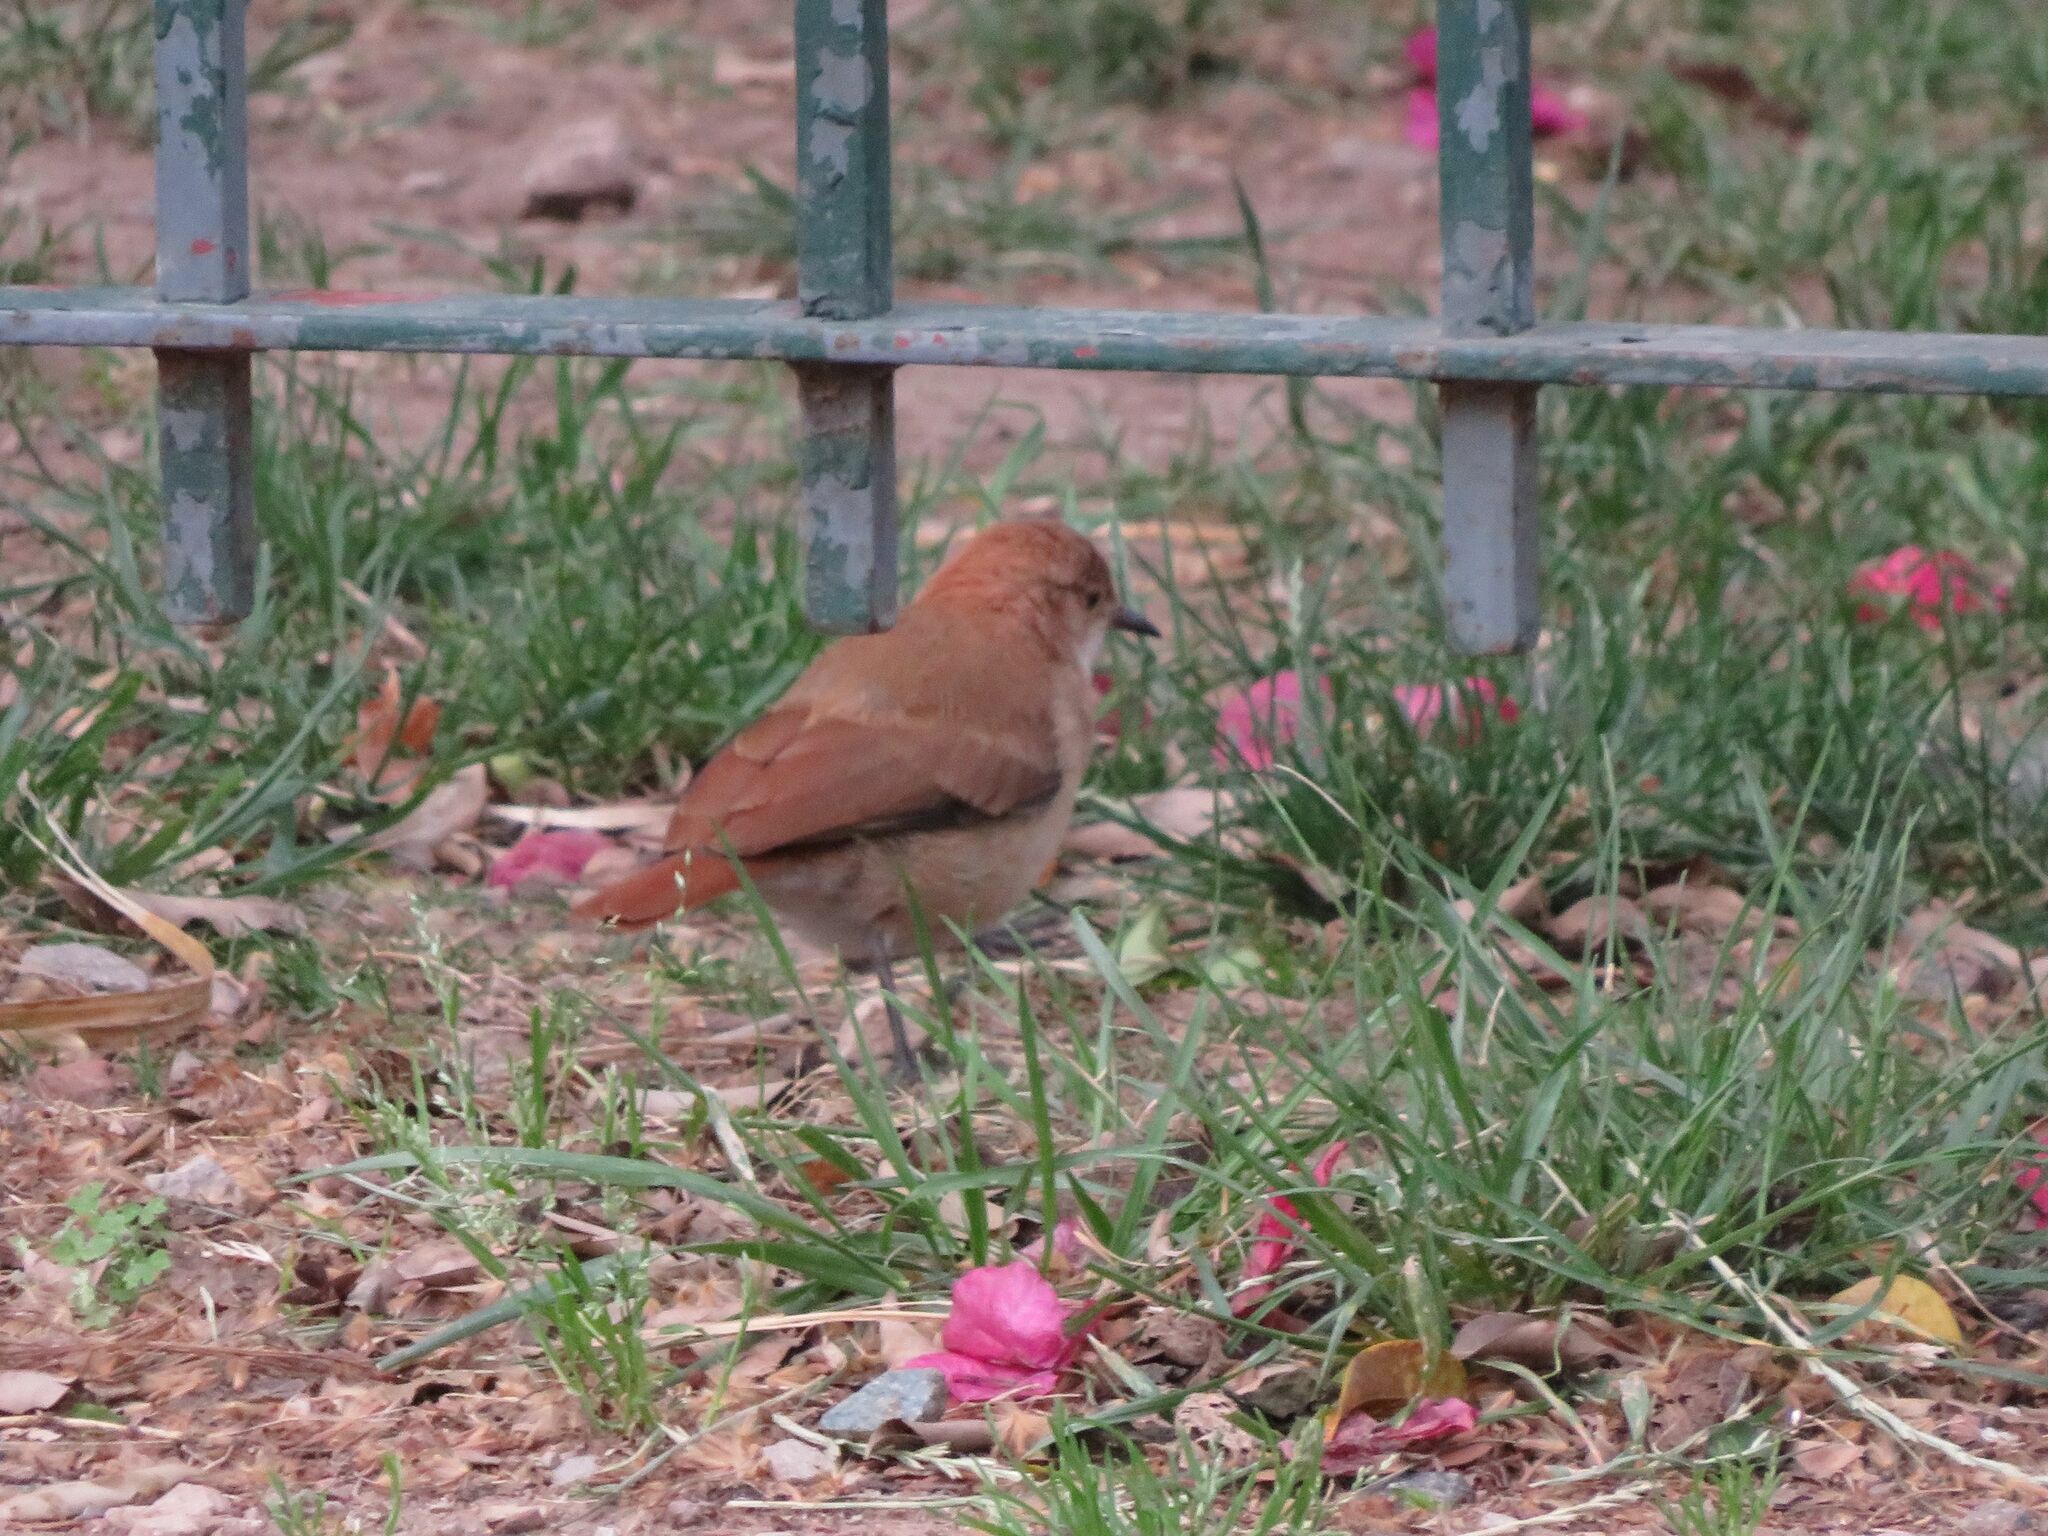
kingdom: Animalia
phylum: Chordata
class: Aves
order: Passeriformes
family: Furnariidae
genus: Furnarius
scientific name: Furnarius rufus
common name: Rufous hornero
